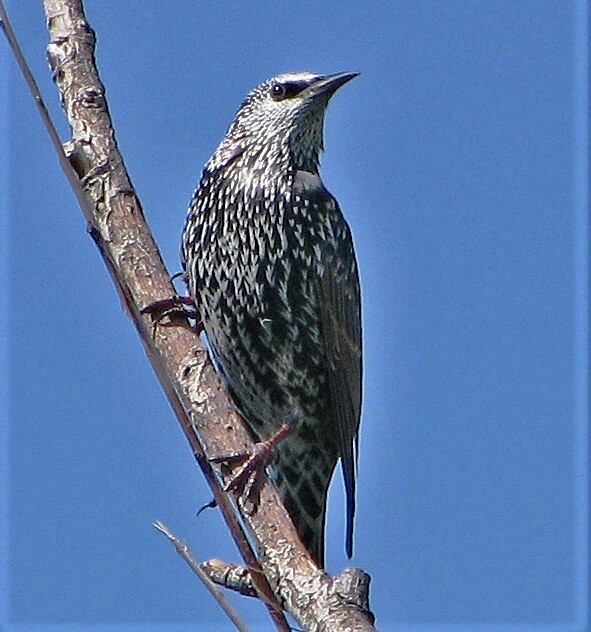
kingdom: Animalia
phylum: Chordata
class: Aves
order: Passeriformes
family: Sturnidae
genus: Sturnus
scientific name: Sturnus vulgaris
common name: Common starling
